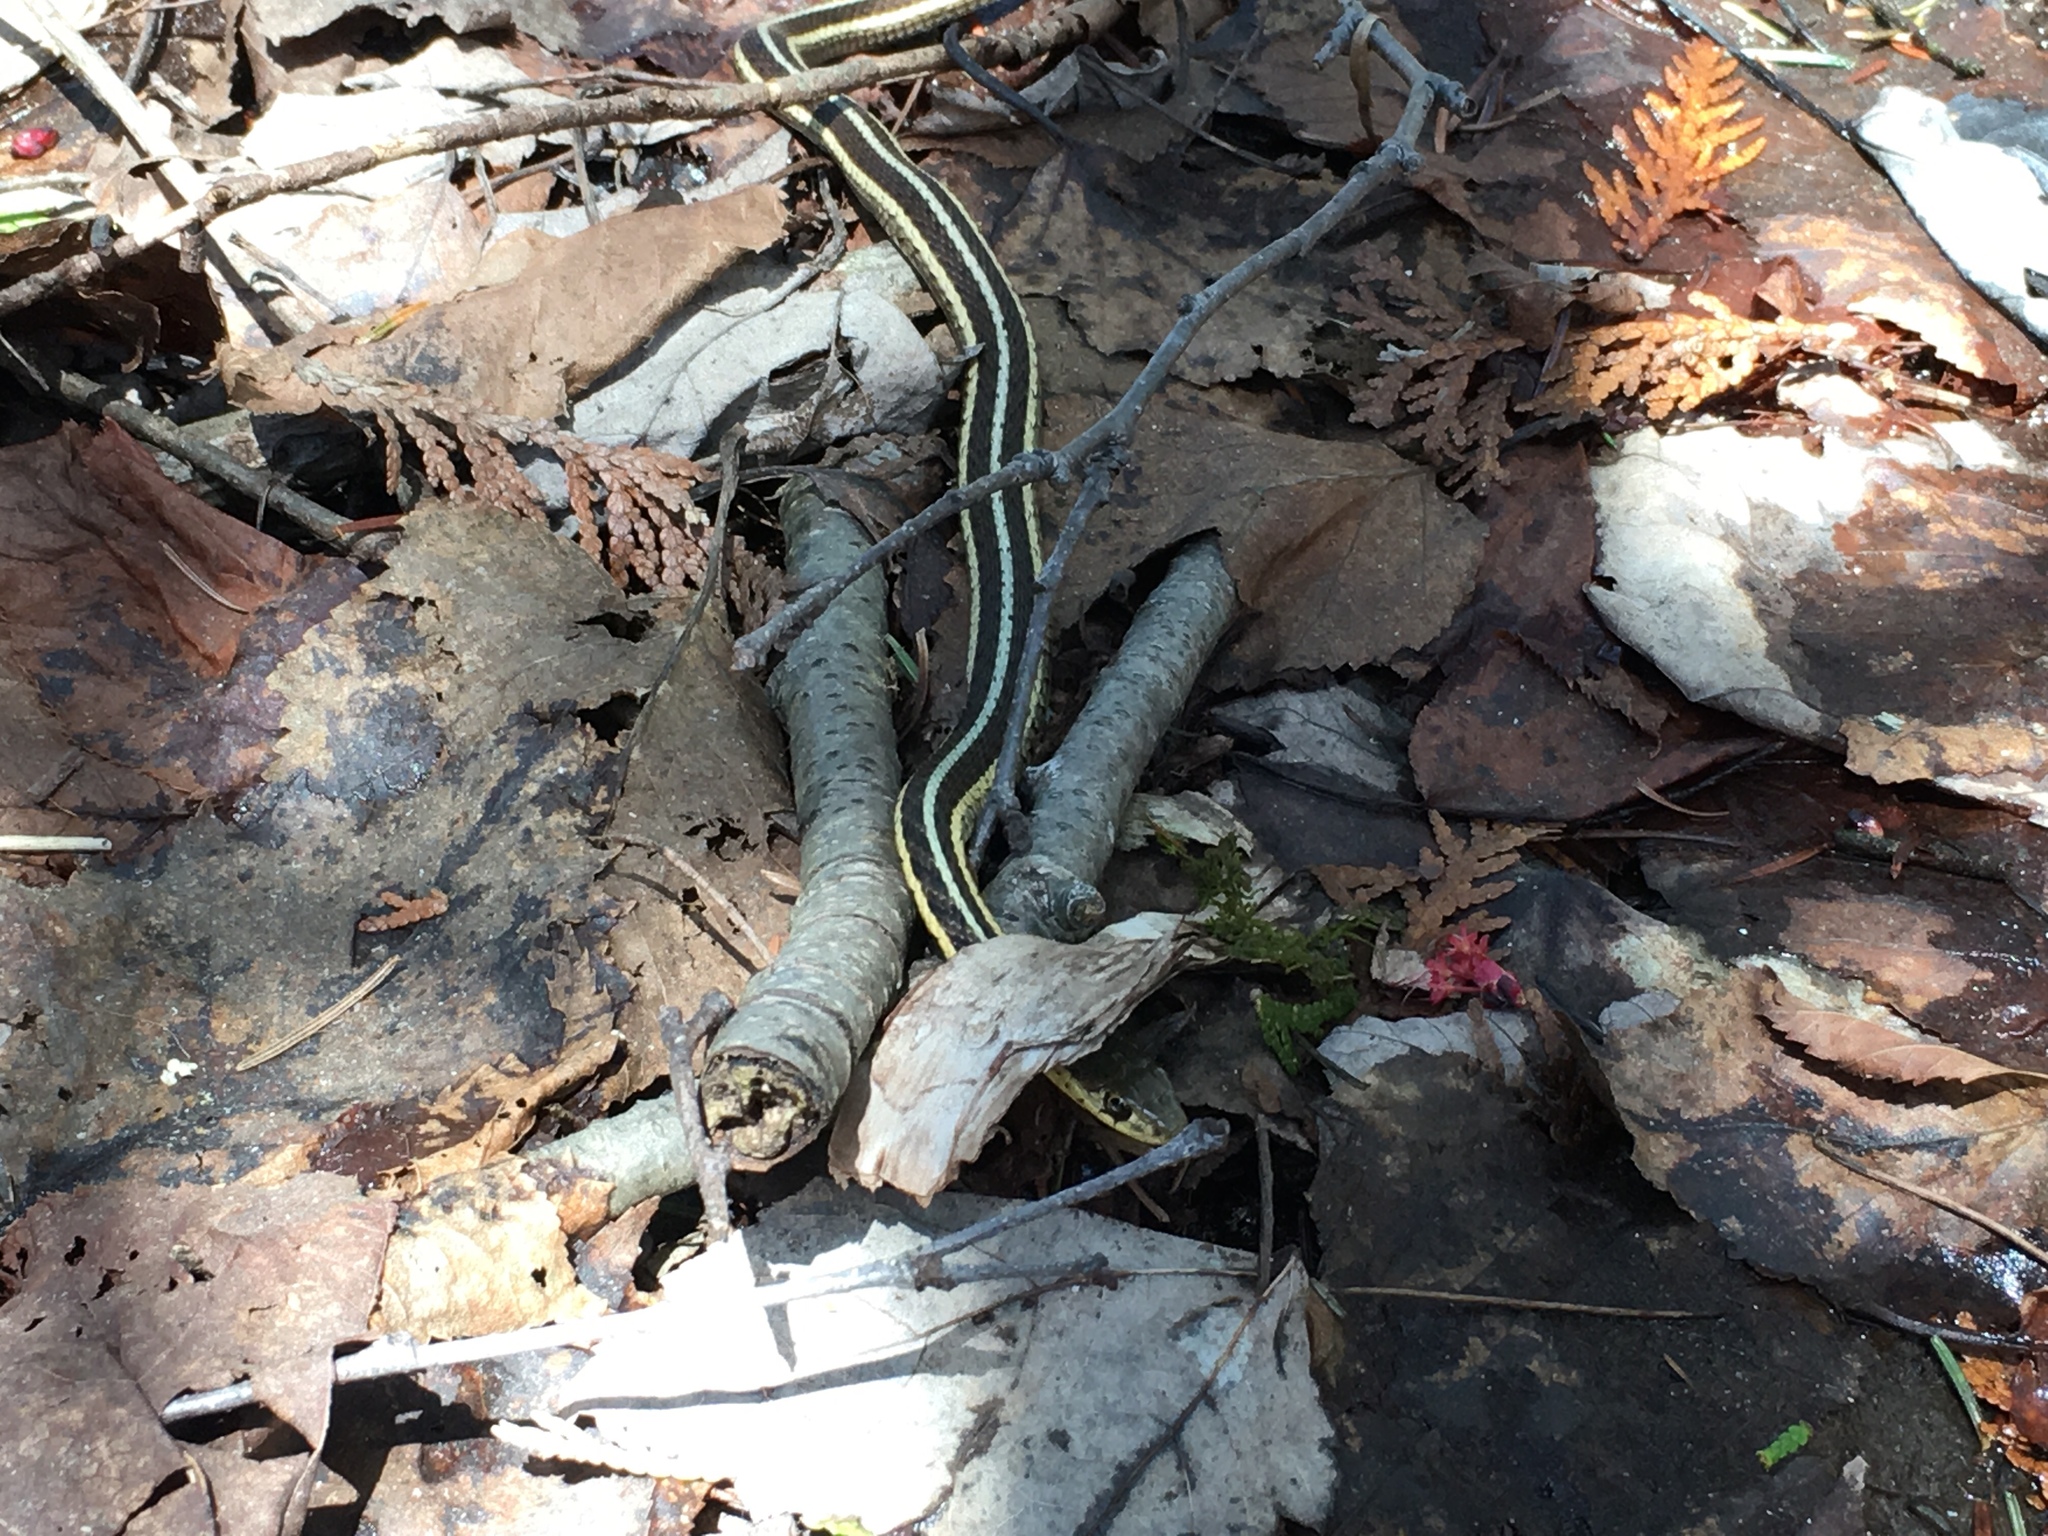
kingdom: Animalia
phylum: Chordata
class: Squamata
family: Colubridae
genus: Thamnophis
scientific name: Thamnophis sirtalis
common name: Common garter snake
